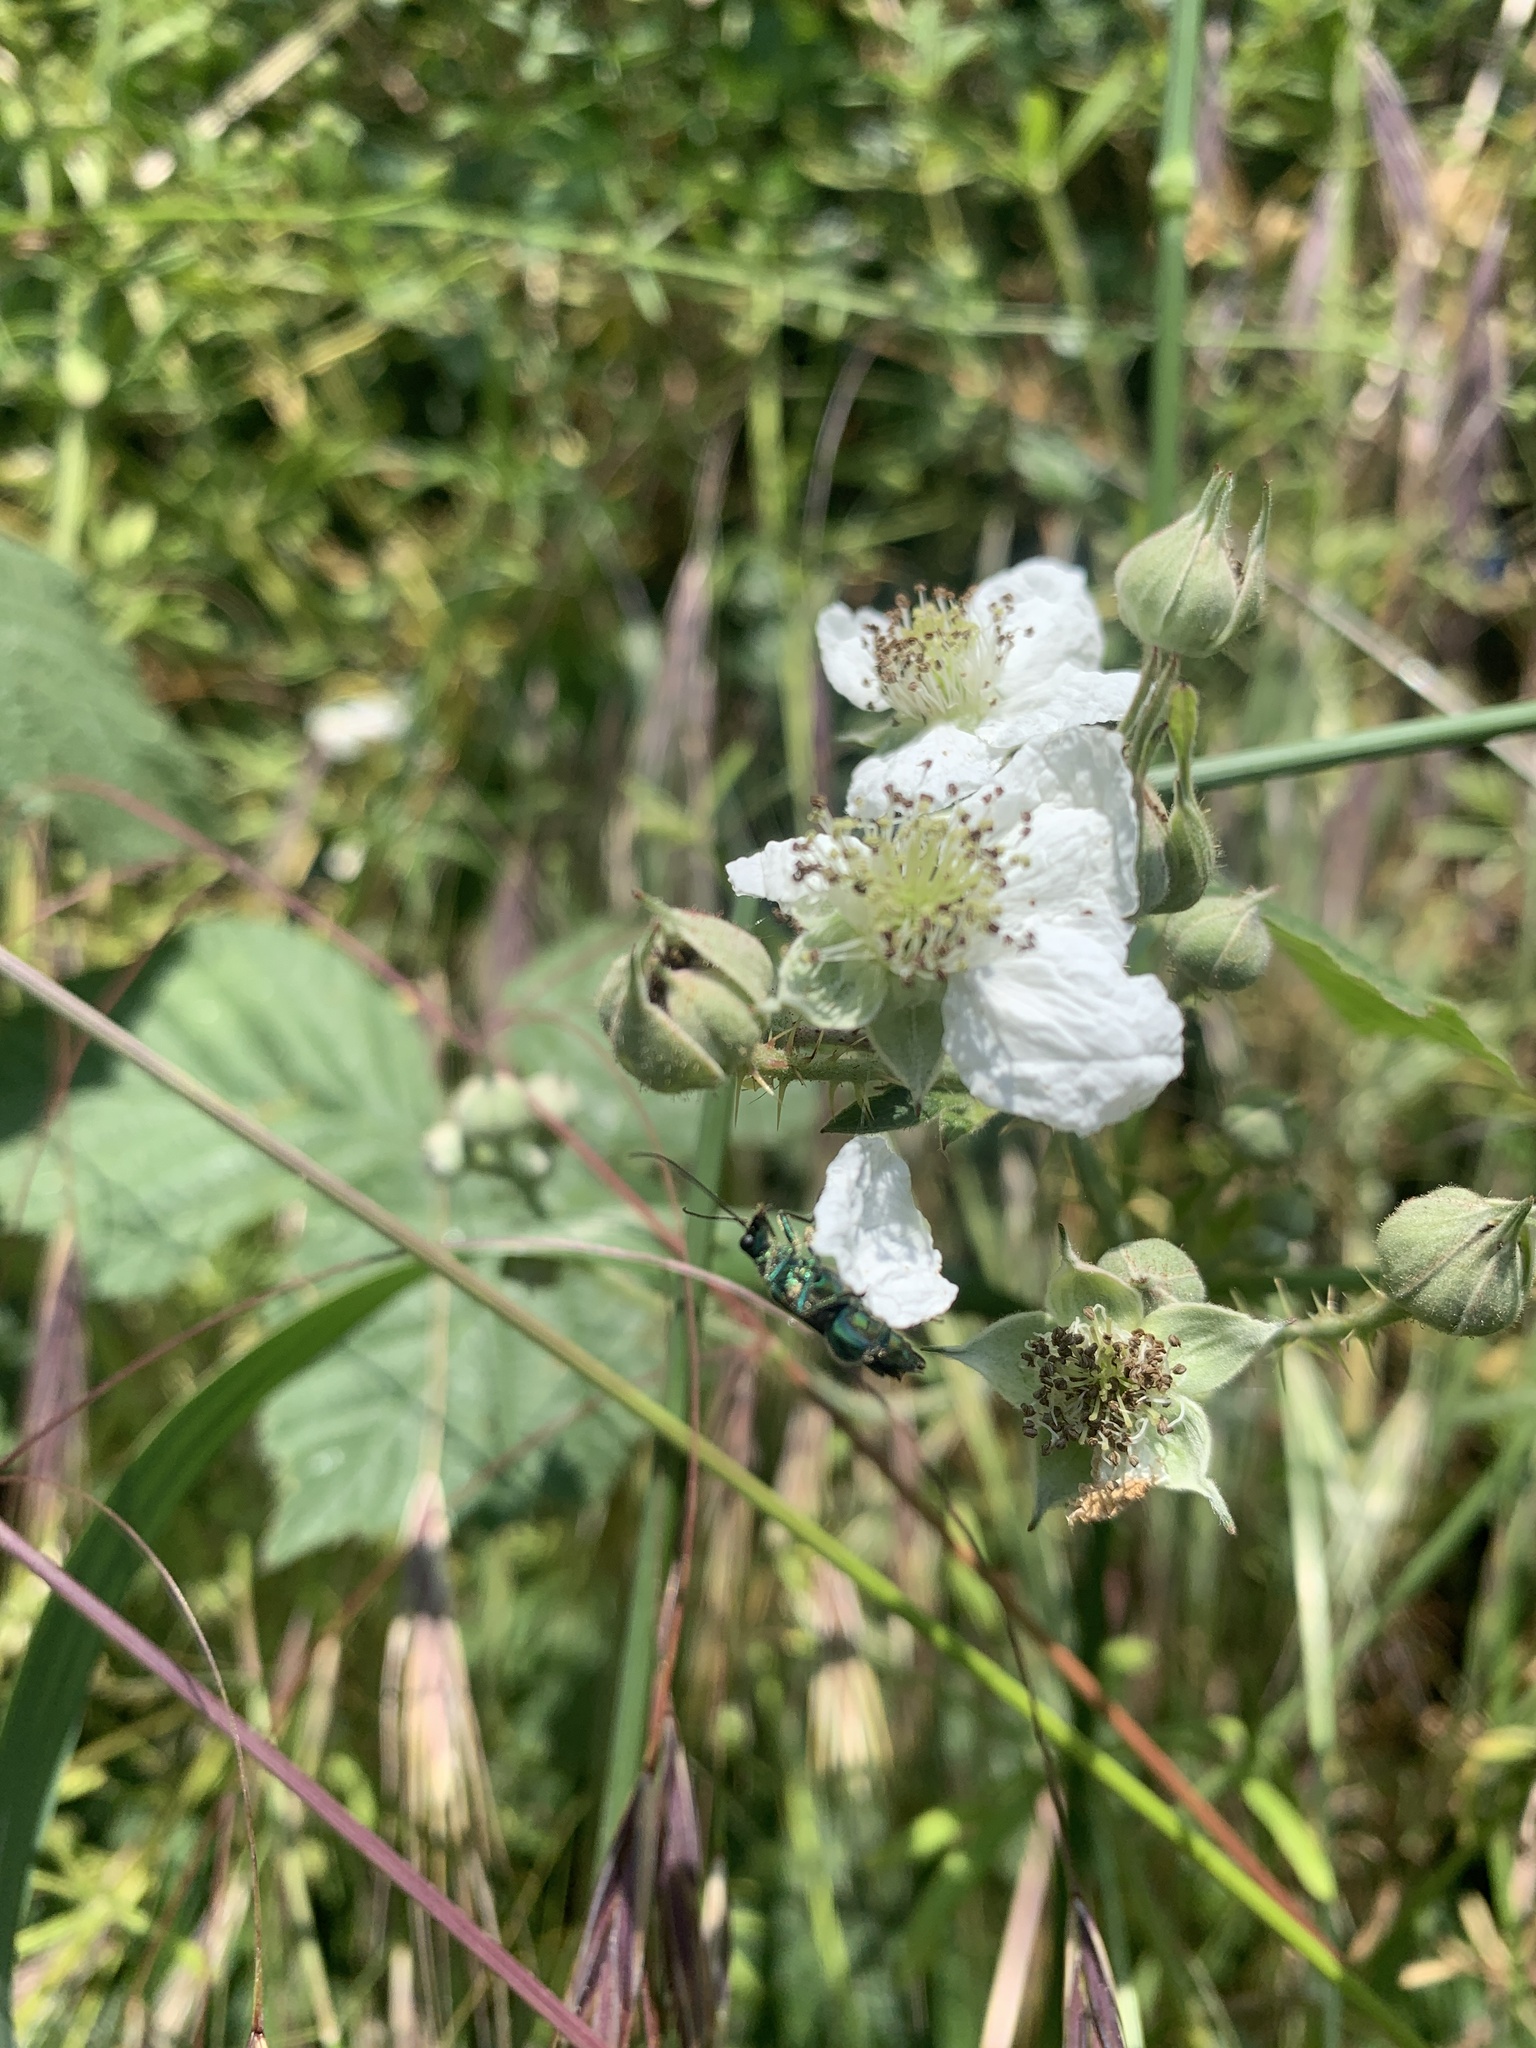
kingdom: Plantae
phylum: Tracheophyta
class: Magnoliopsida
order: Rosales
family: Rosaceae
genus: Rubus
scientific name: Rubus fruticosus
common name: Blackberry, bramble
